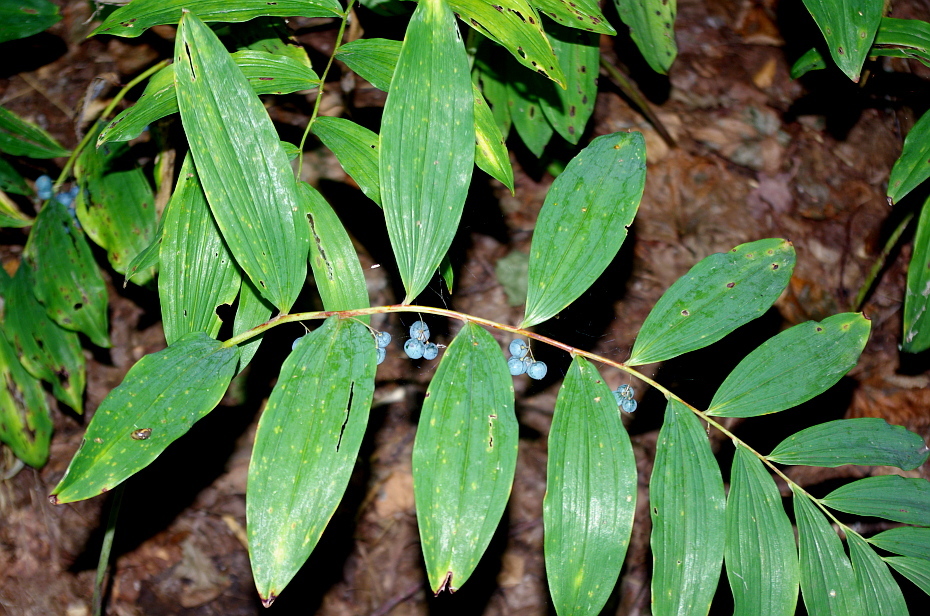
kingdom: Plantae
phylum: Tracheophyta
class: Liliopsida
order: Asparagales
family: Asparagaceae
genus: Polygonatum
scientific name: Polygonatum multiflorum
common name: Solomon's-seal
